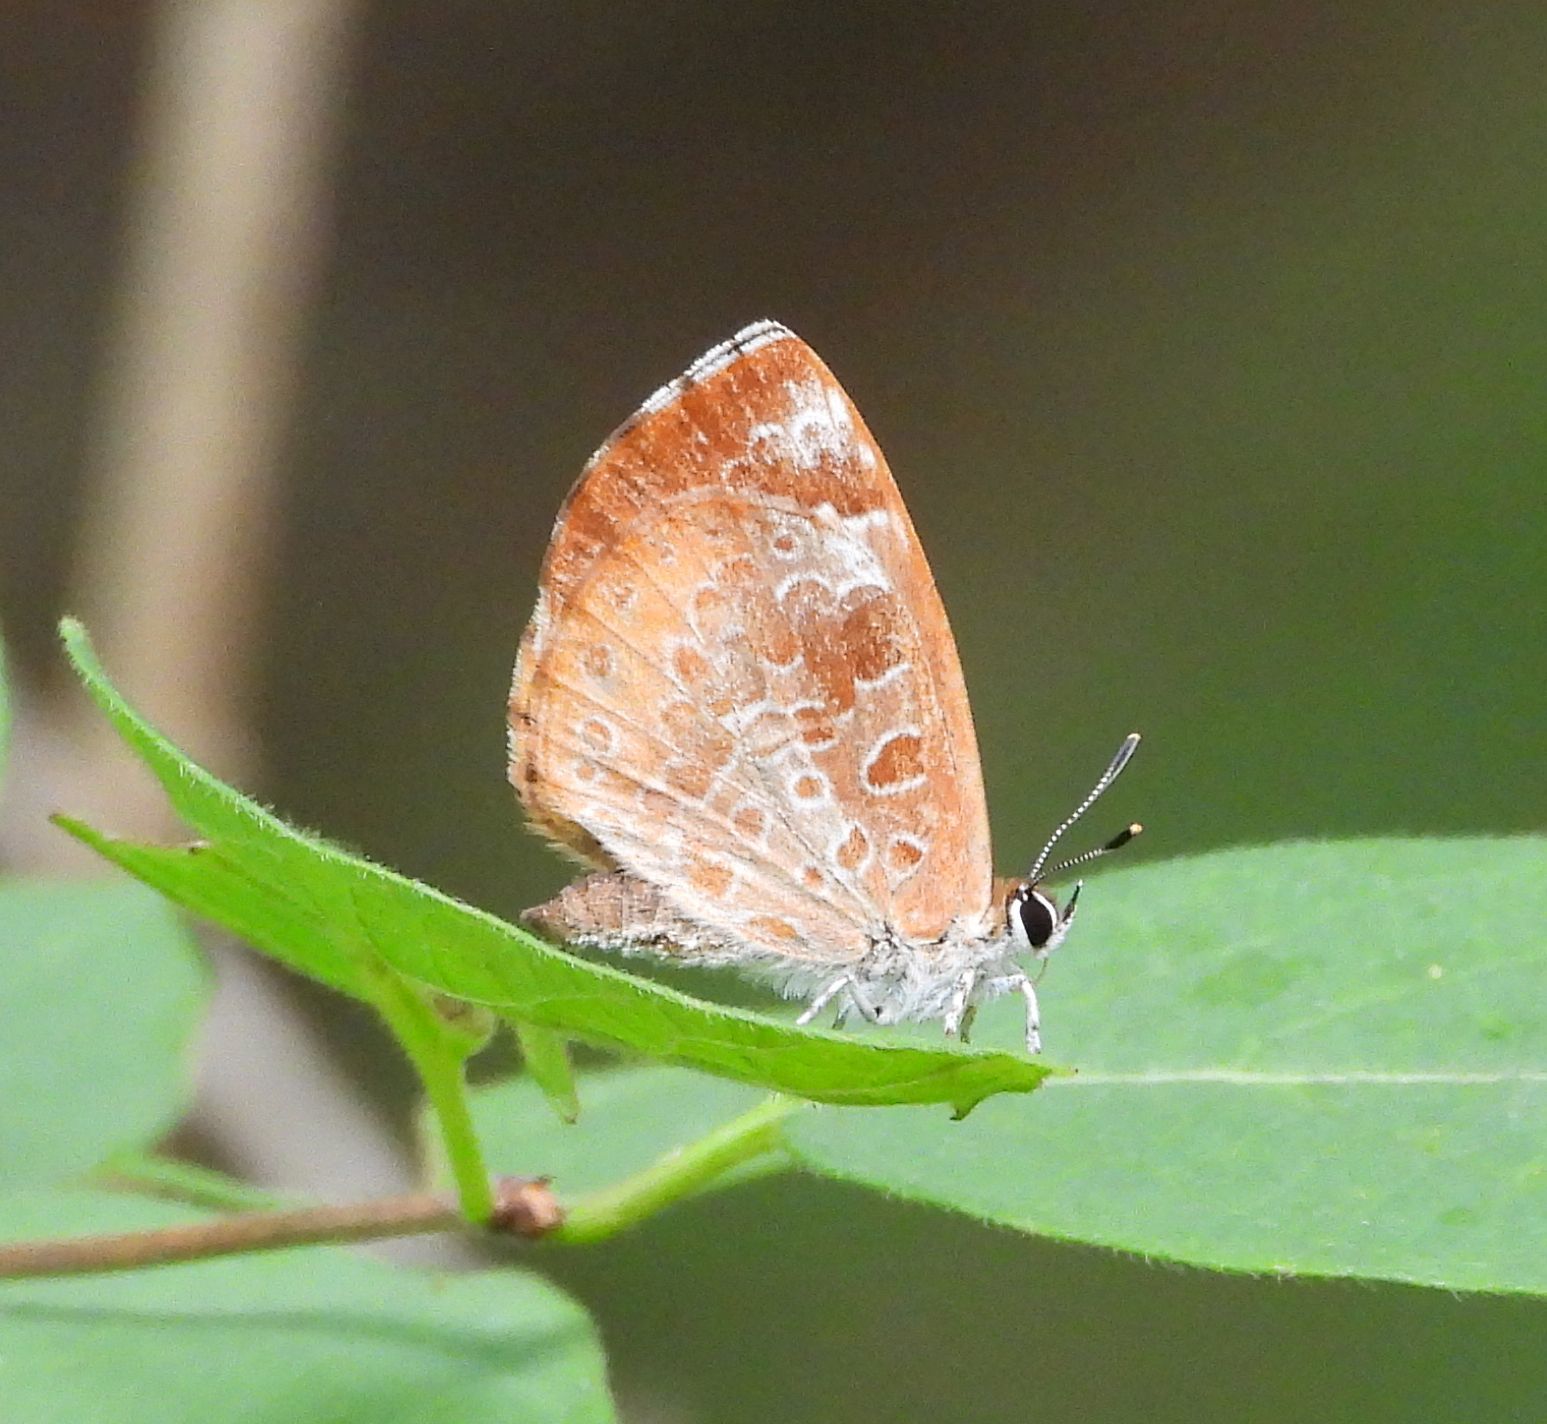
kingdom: Animalia
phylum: Arthropoda
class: Insecta
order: Lepidoptera
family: Lycaenidae
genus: Feniseca
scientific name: Feniseca tarquinius
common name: Harvester
